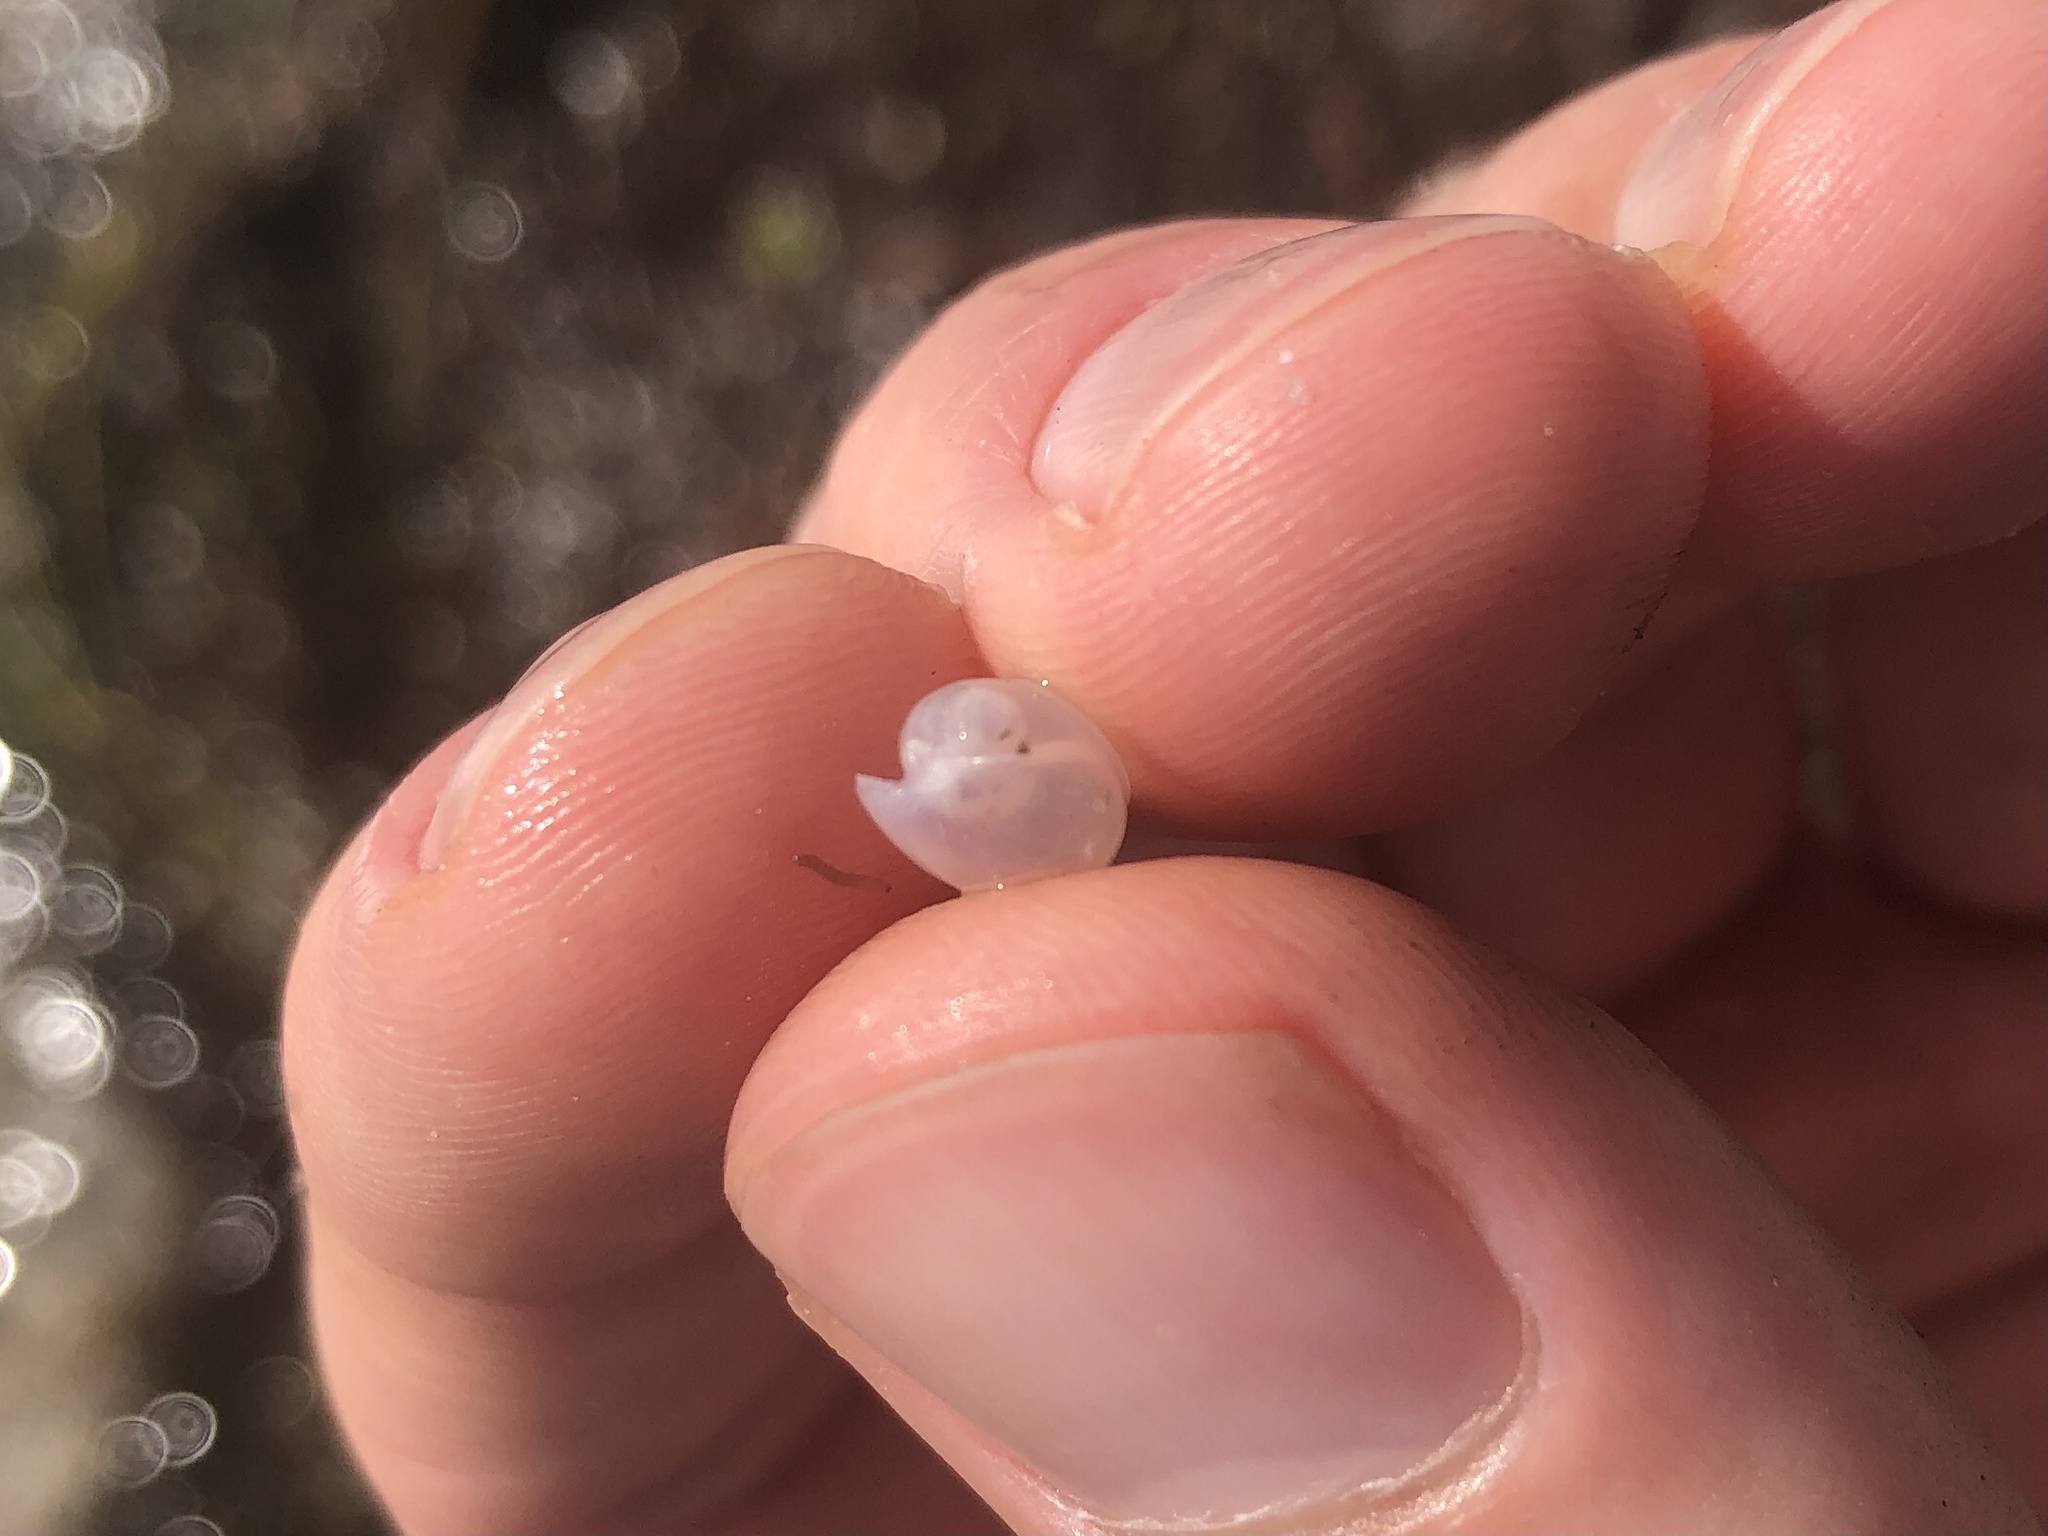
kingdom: Animalia
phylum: Mollusca
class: Gastropoda
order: Cephalaspidea
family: Bullidae
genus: Bulla
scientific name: Bulla occidentalis
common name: Common west-indian bubble
